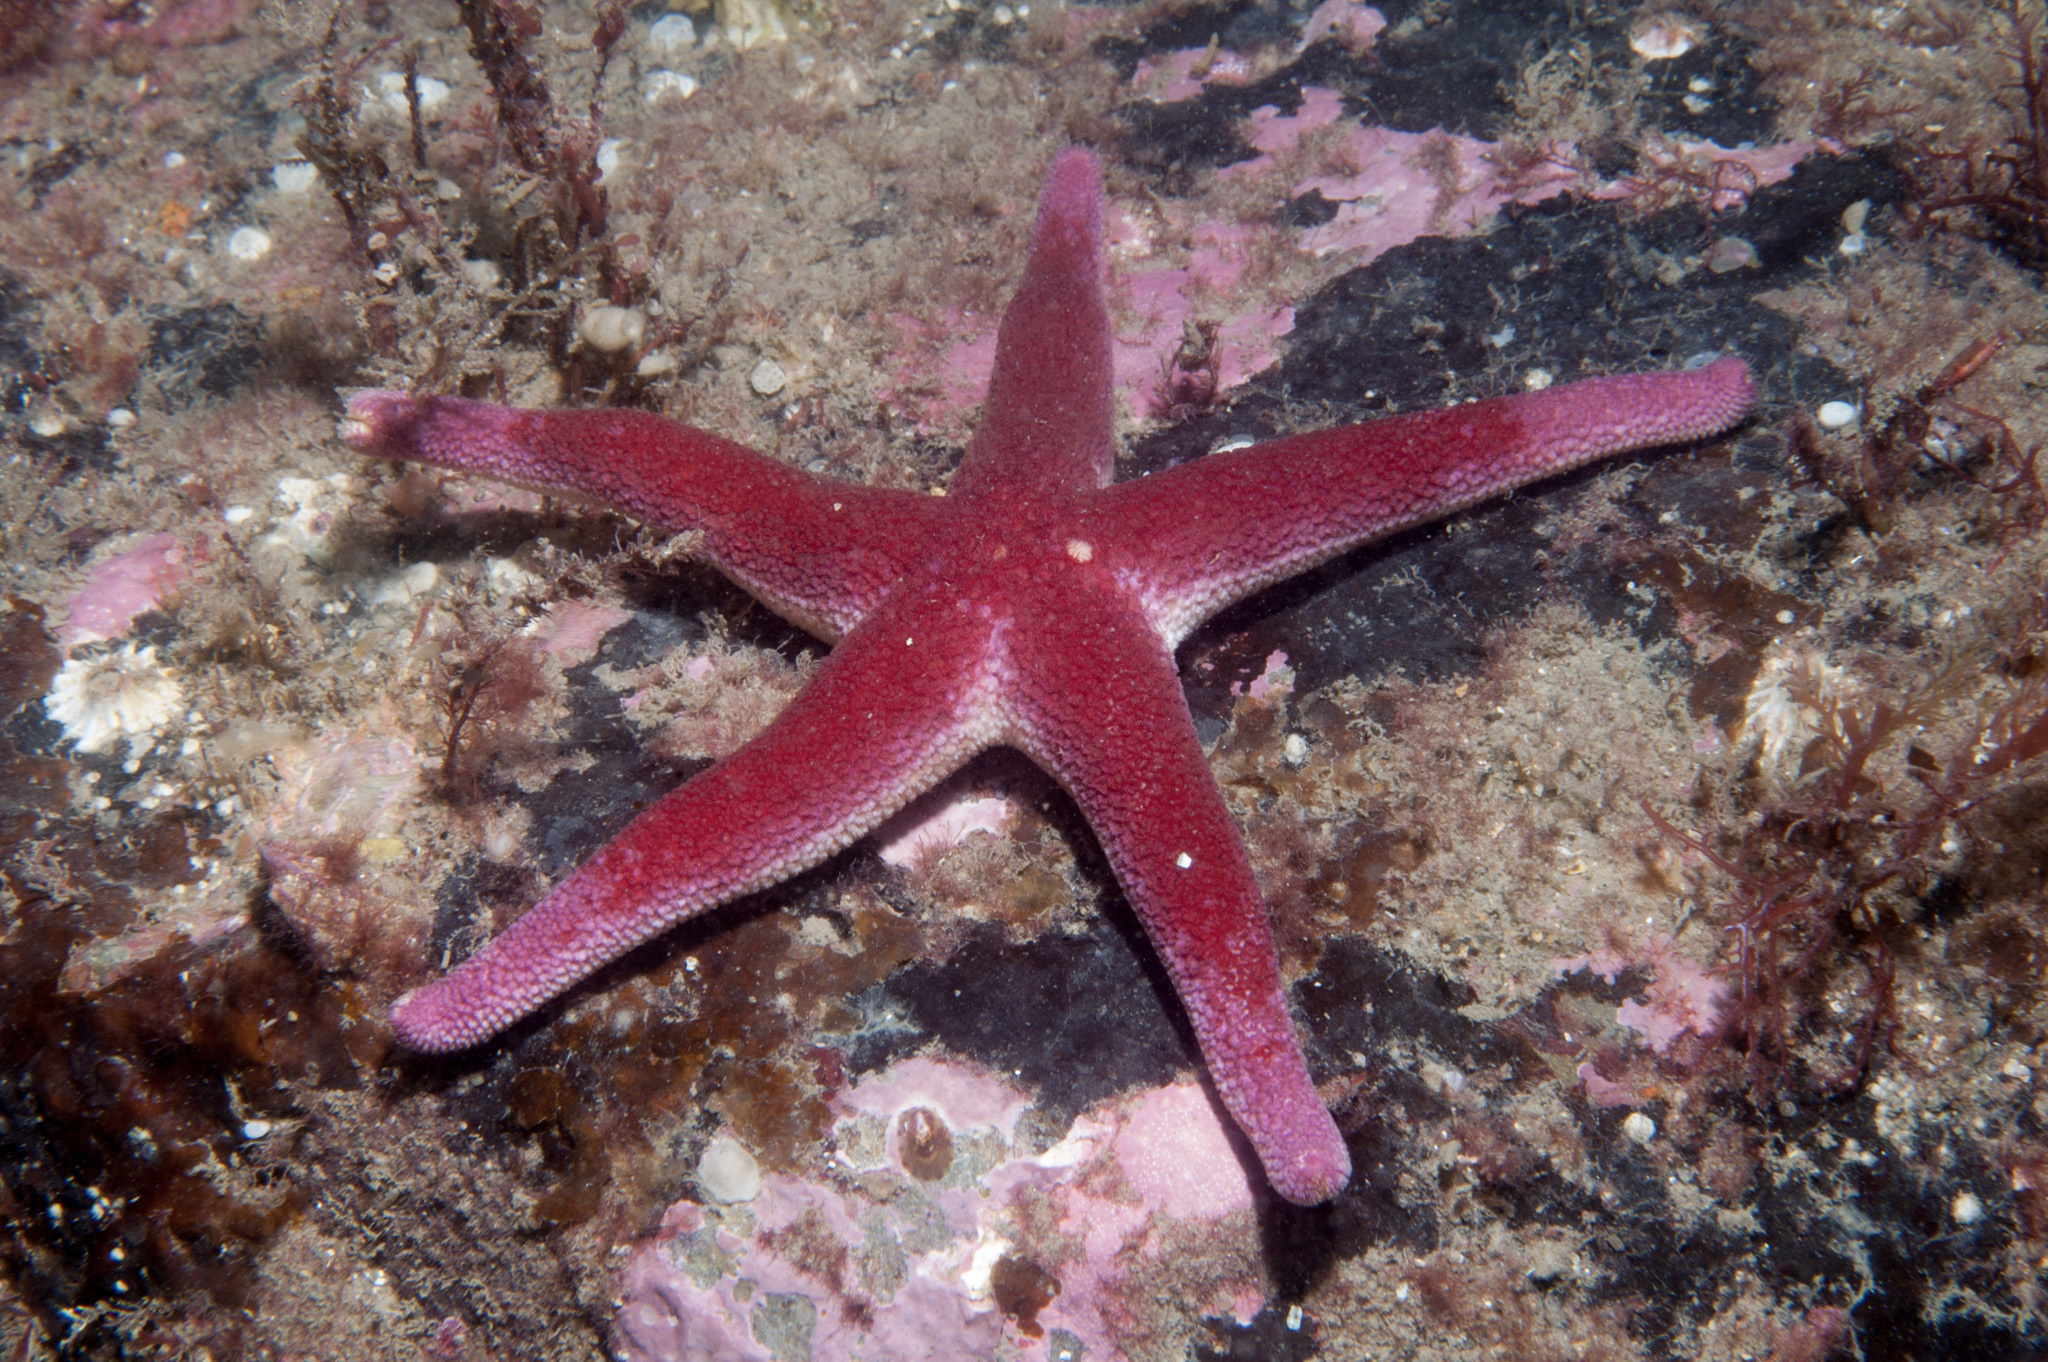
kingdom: Animalia
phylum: Echinodermata
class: Asteroidea
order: Spinulosida
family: Echinasteridae
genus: Henricia
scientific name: Henricia oculata
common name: Bloody henry starfish
